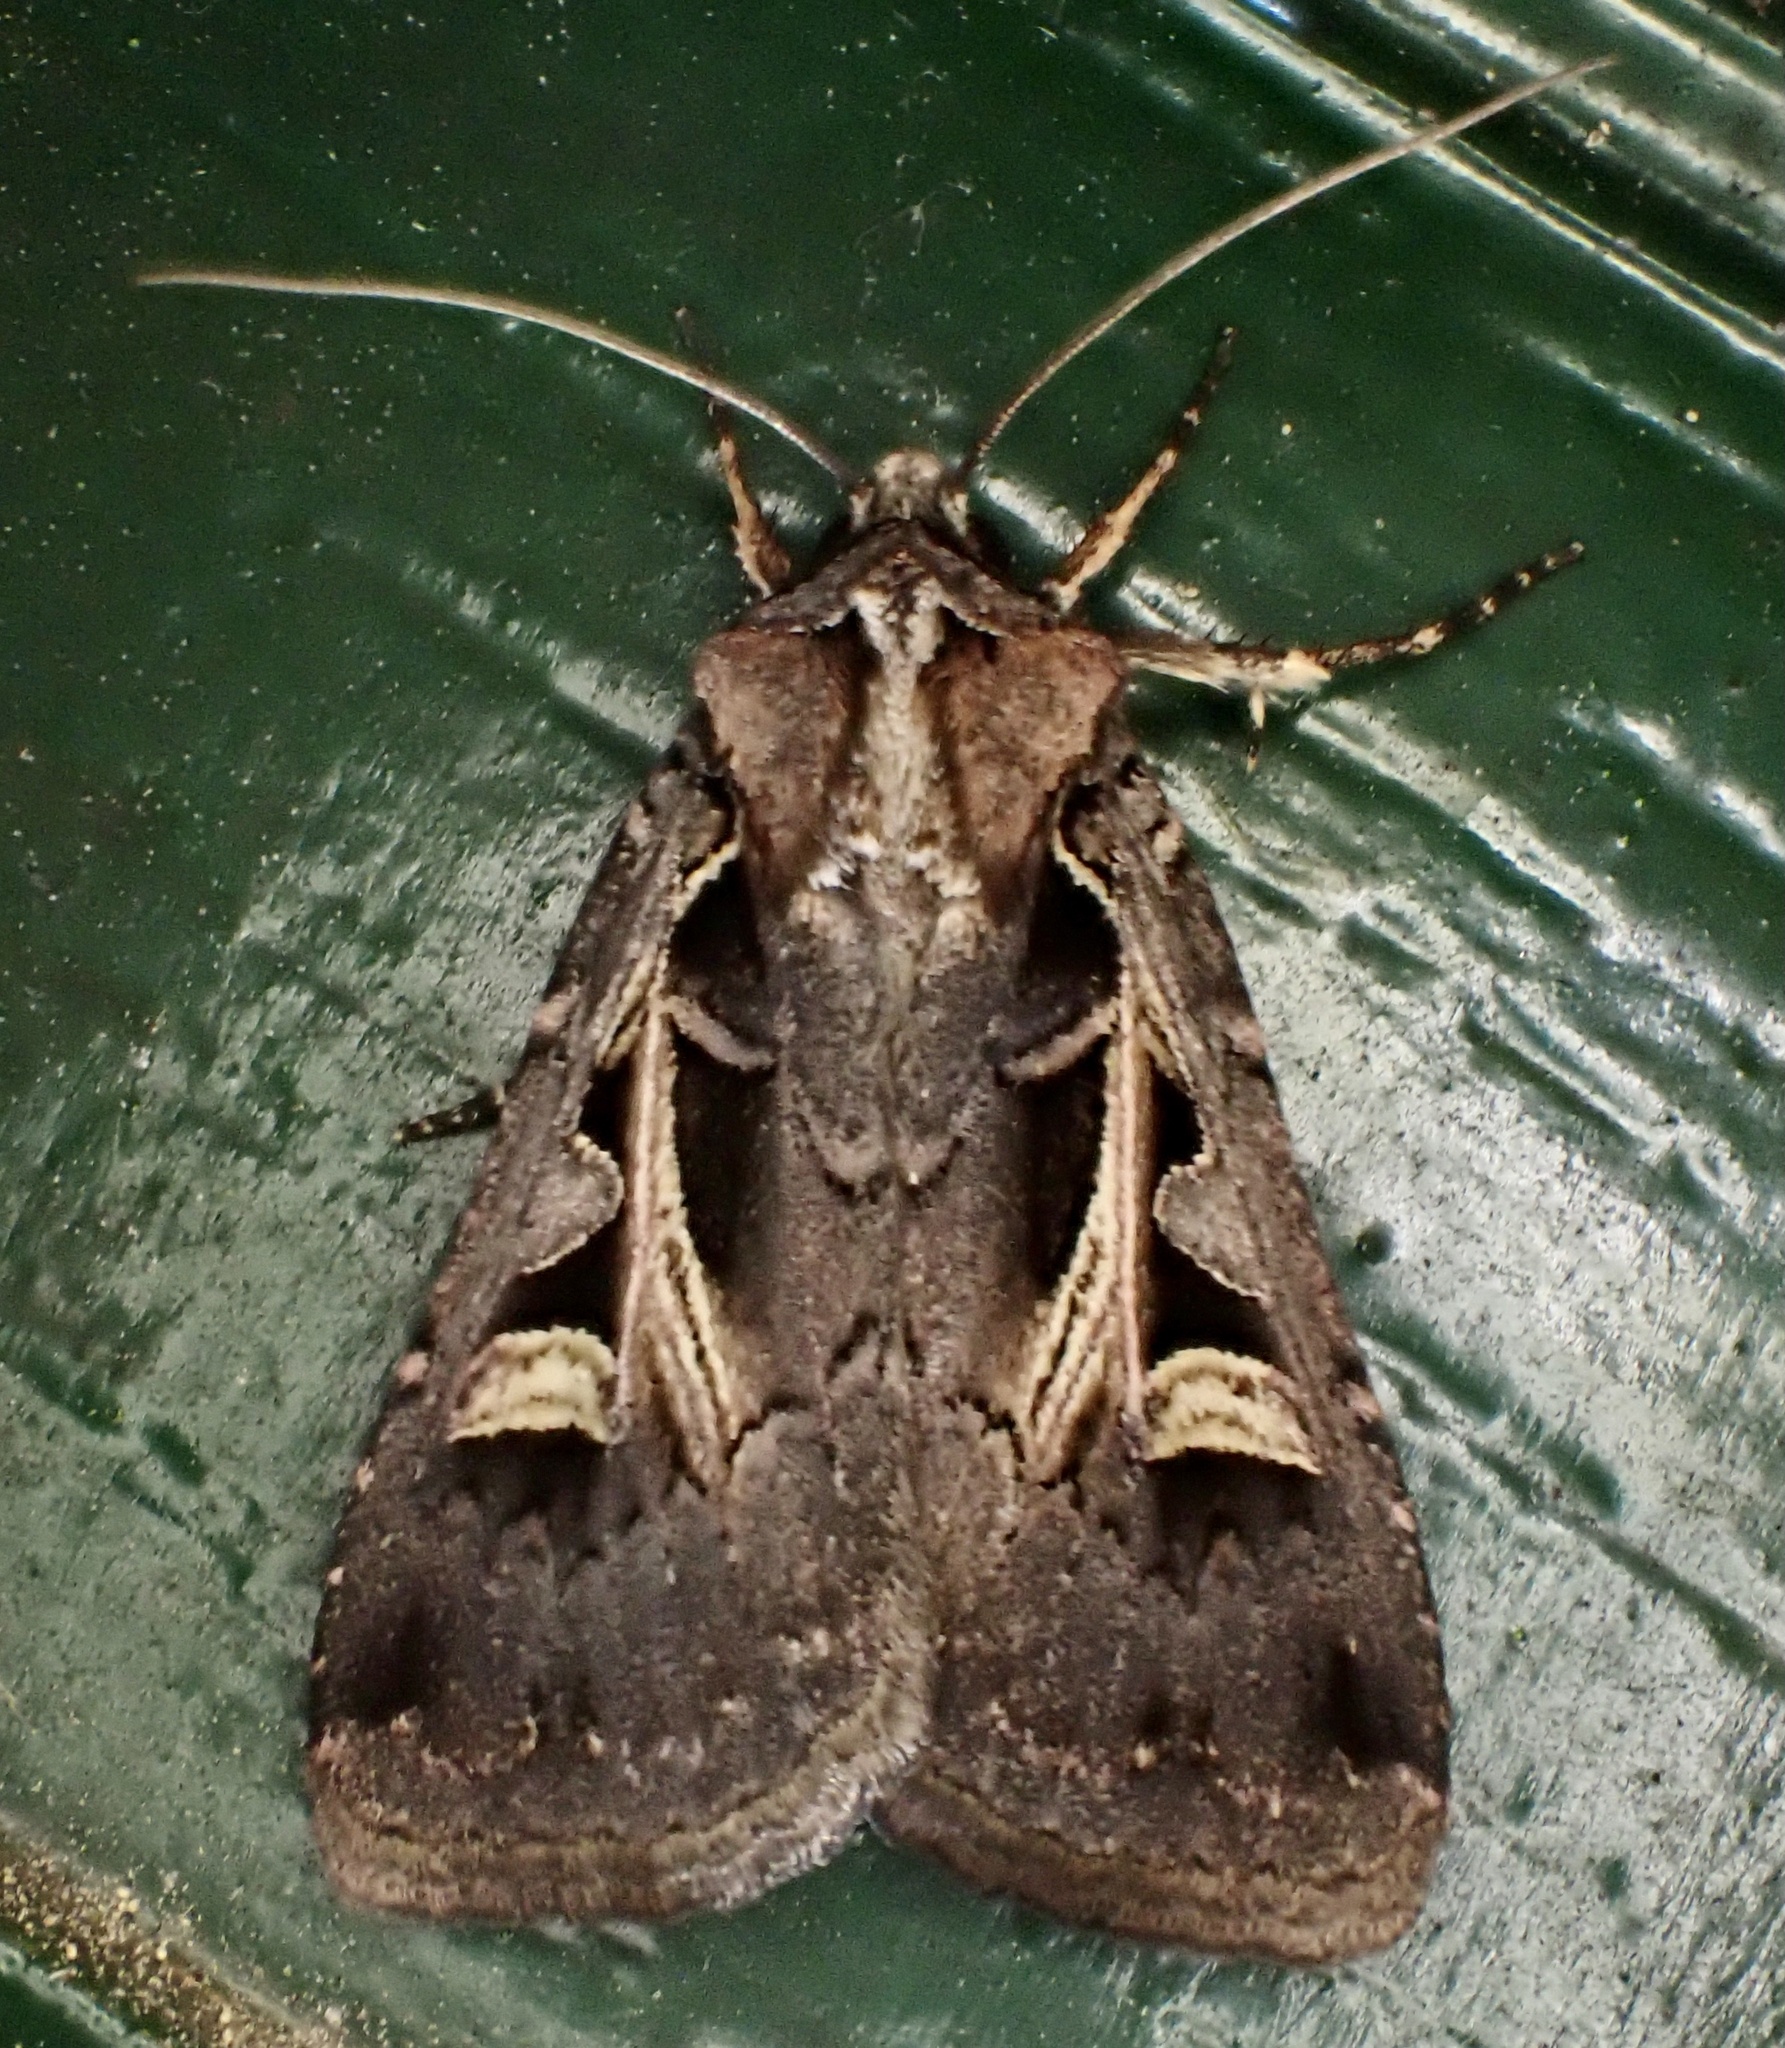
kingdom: Animalia
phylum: Arthropoda
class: Insecta
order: Lepidoptera
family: Noctuidae
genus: Feltia
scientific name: Feltia herilis
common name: Master's dart
